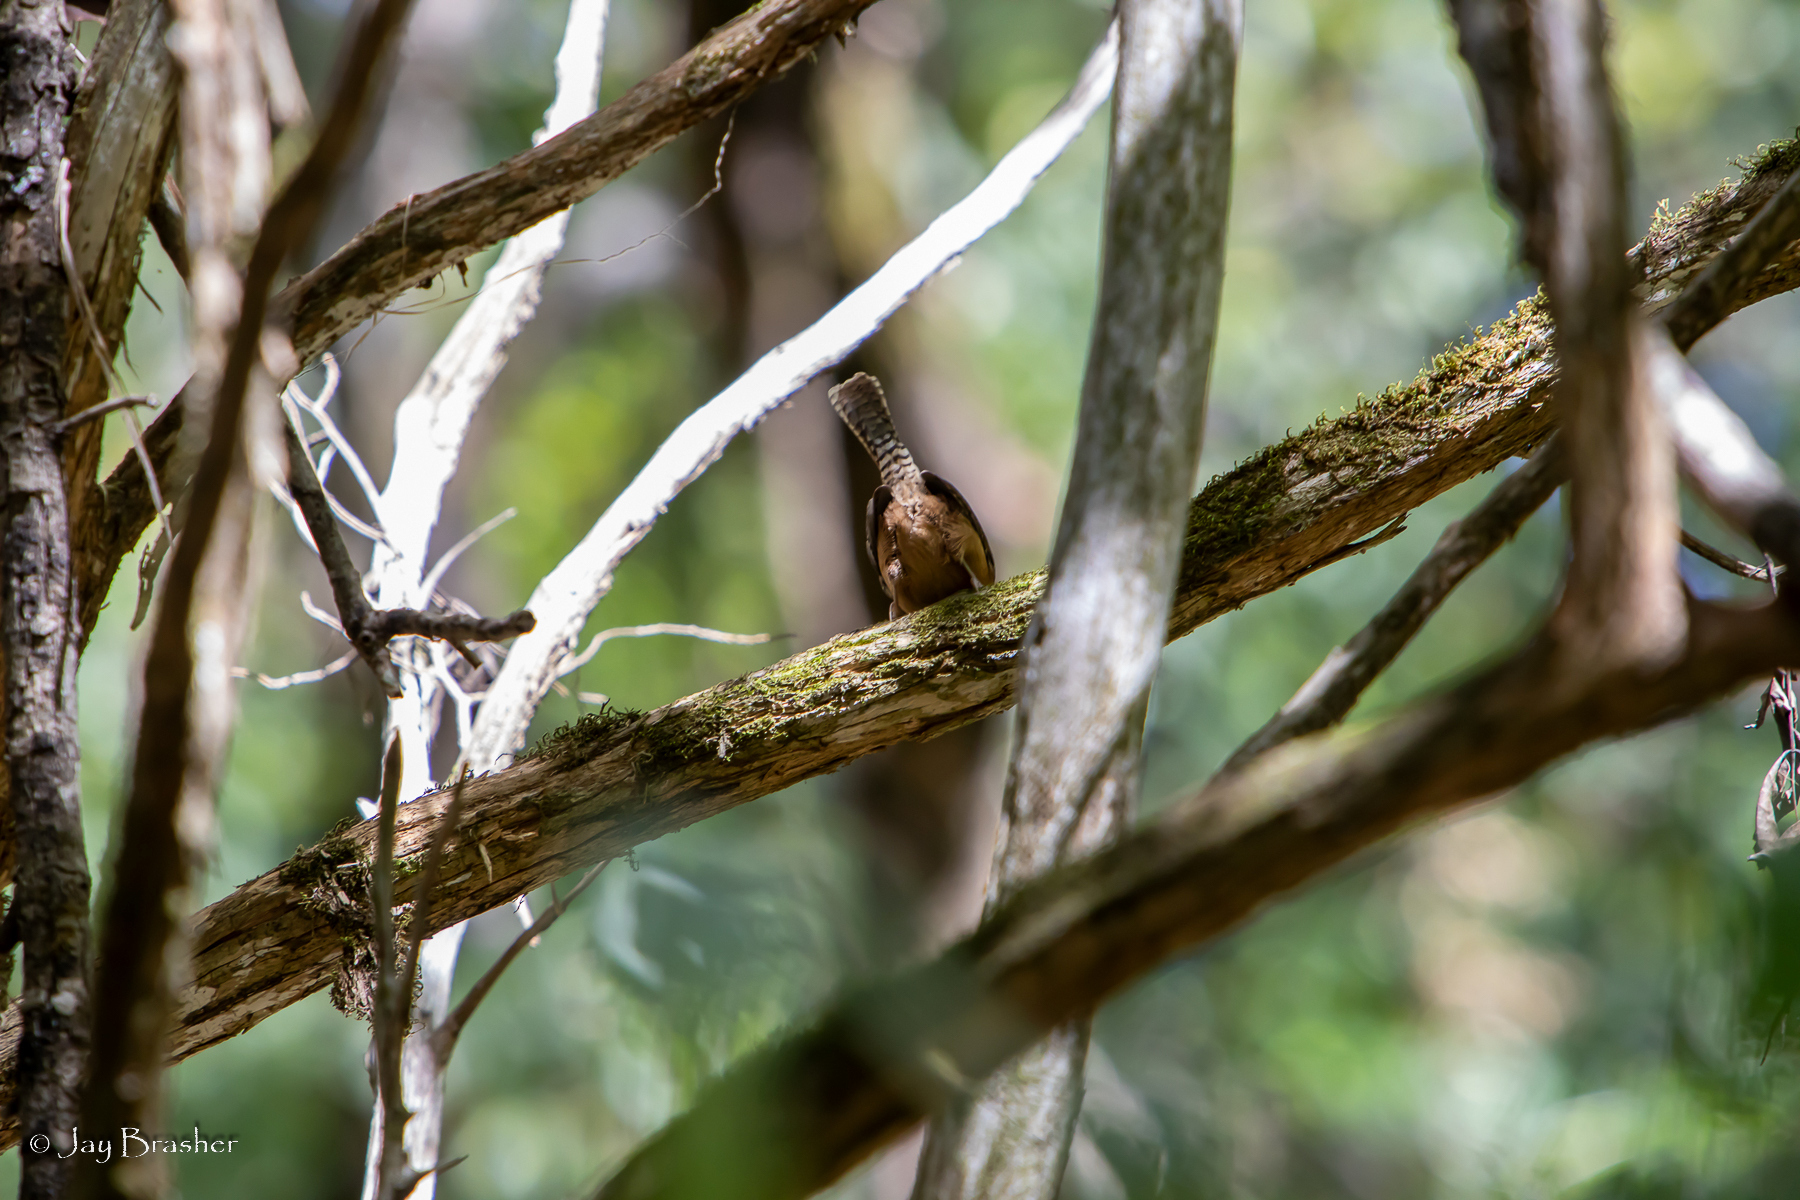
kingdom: Animalia
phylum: Chordata
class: Aves
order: Passeriformes
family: Troglodytidae
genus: Thryothorus
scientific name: Thryothorus ludovicianus
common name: Carolina wren
